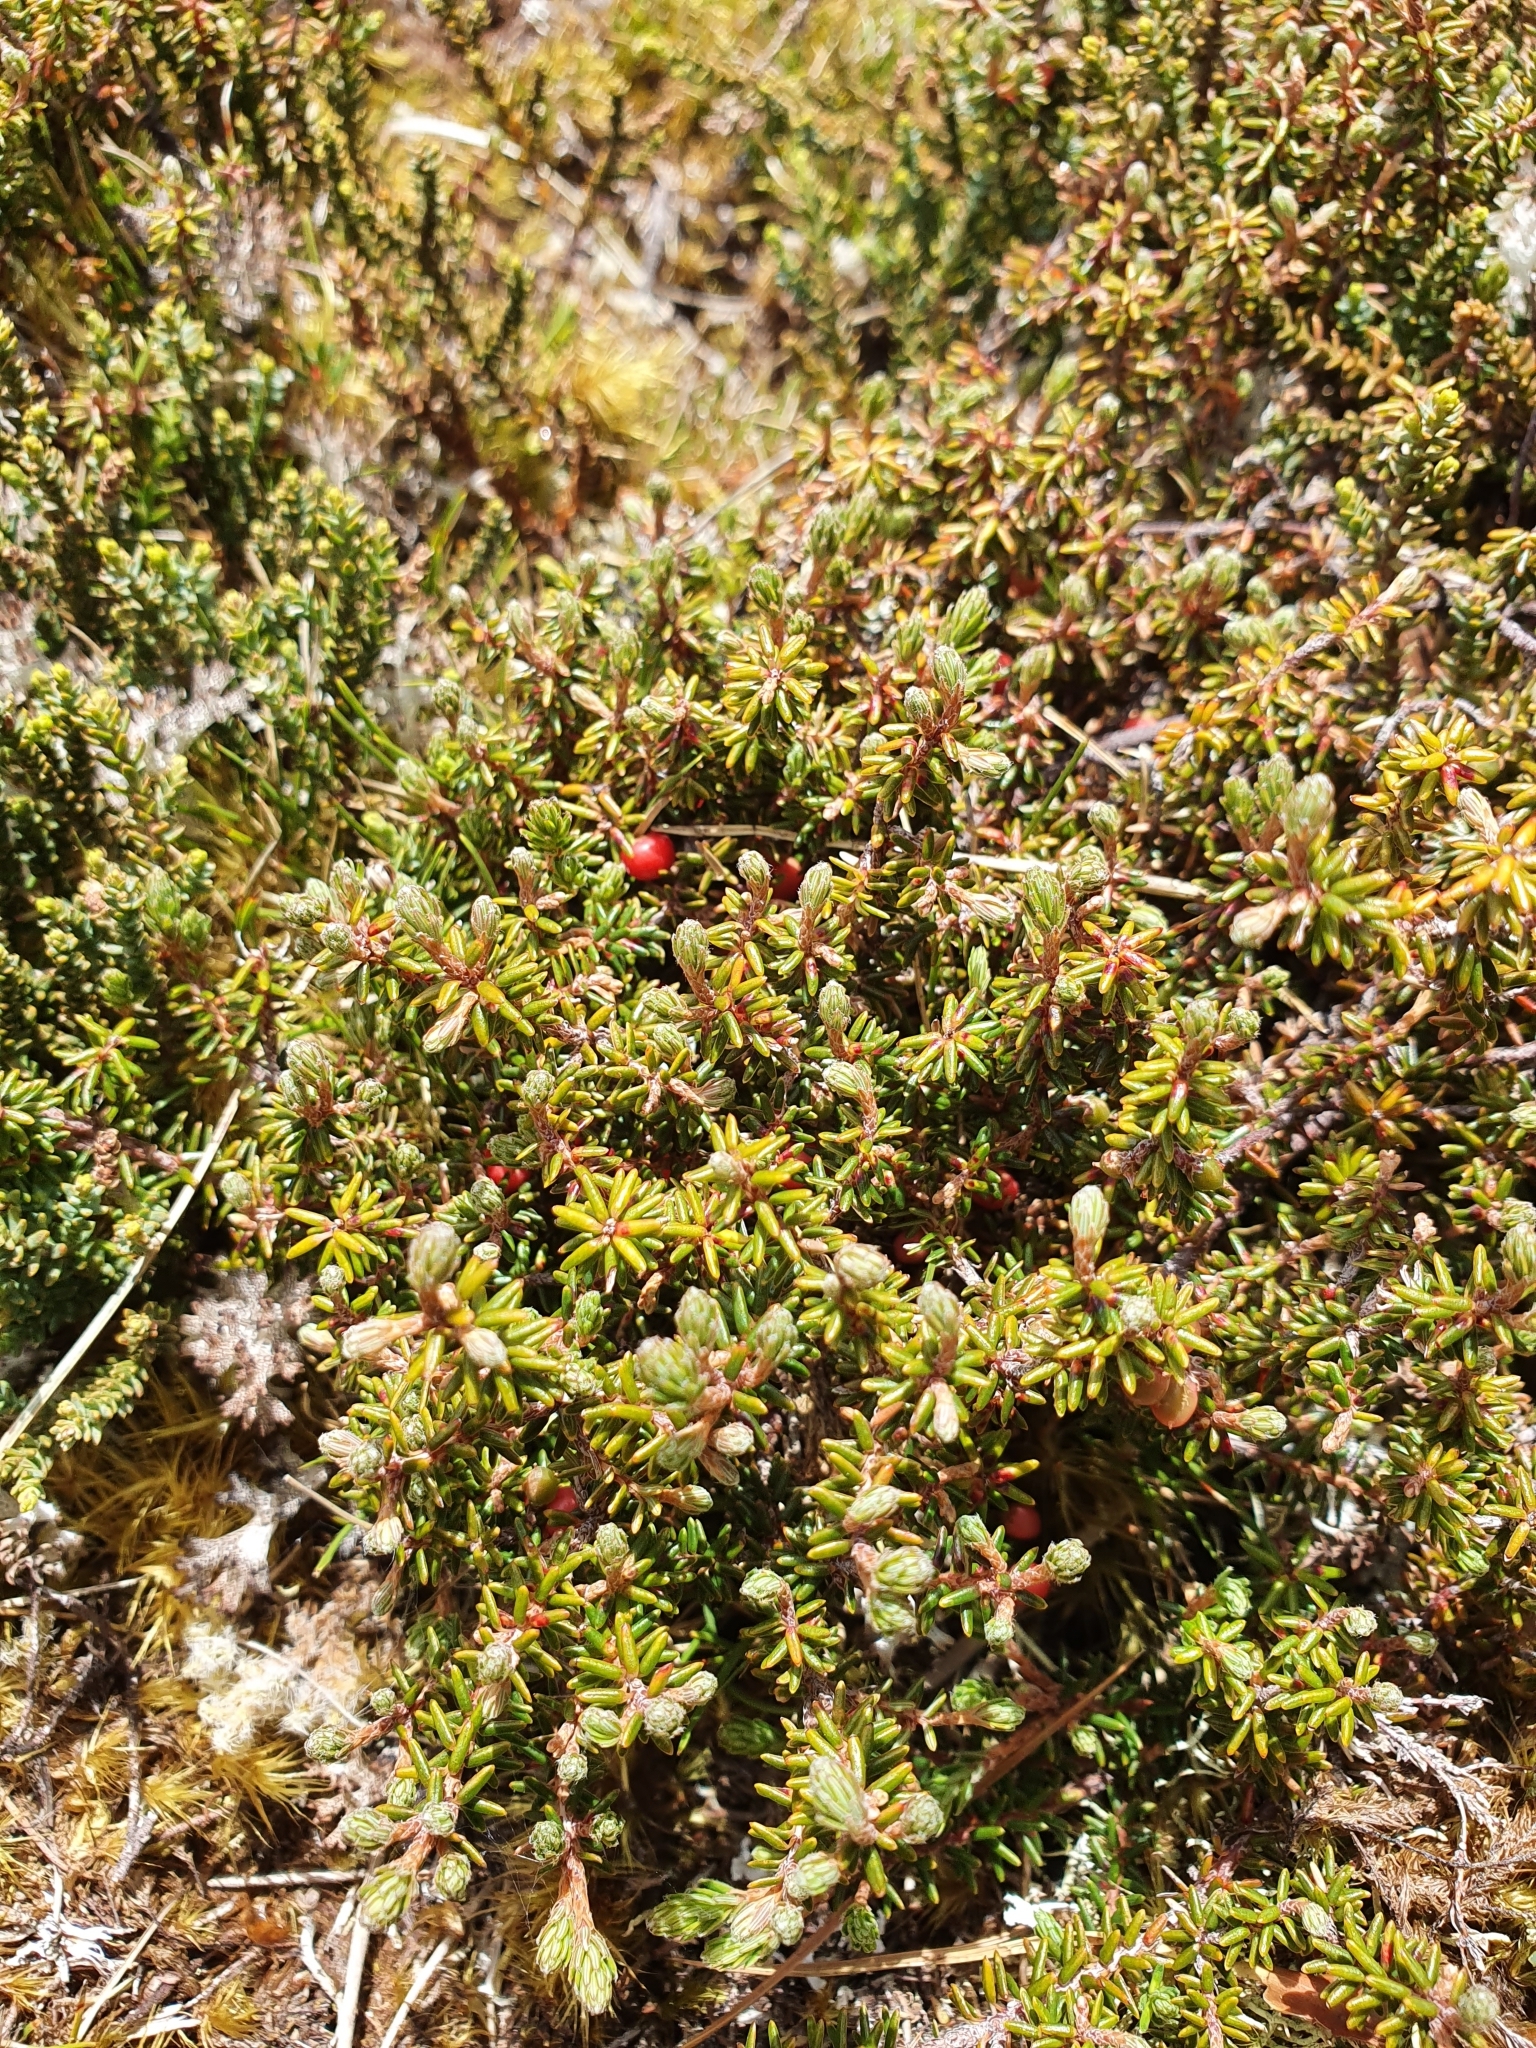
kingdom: Plantae
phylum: Tracheophyta
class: Magnoliopsida
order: Ericales
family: Ericaceae
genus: Androstoma
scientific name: Androstoma empetrifolia
